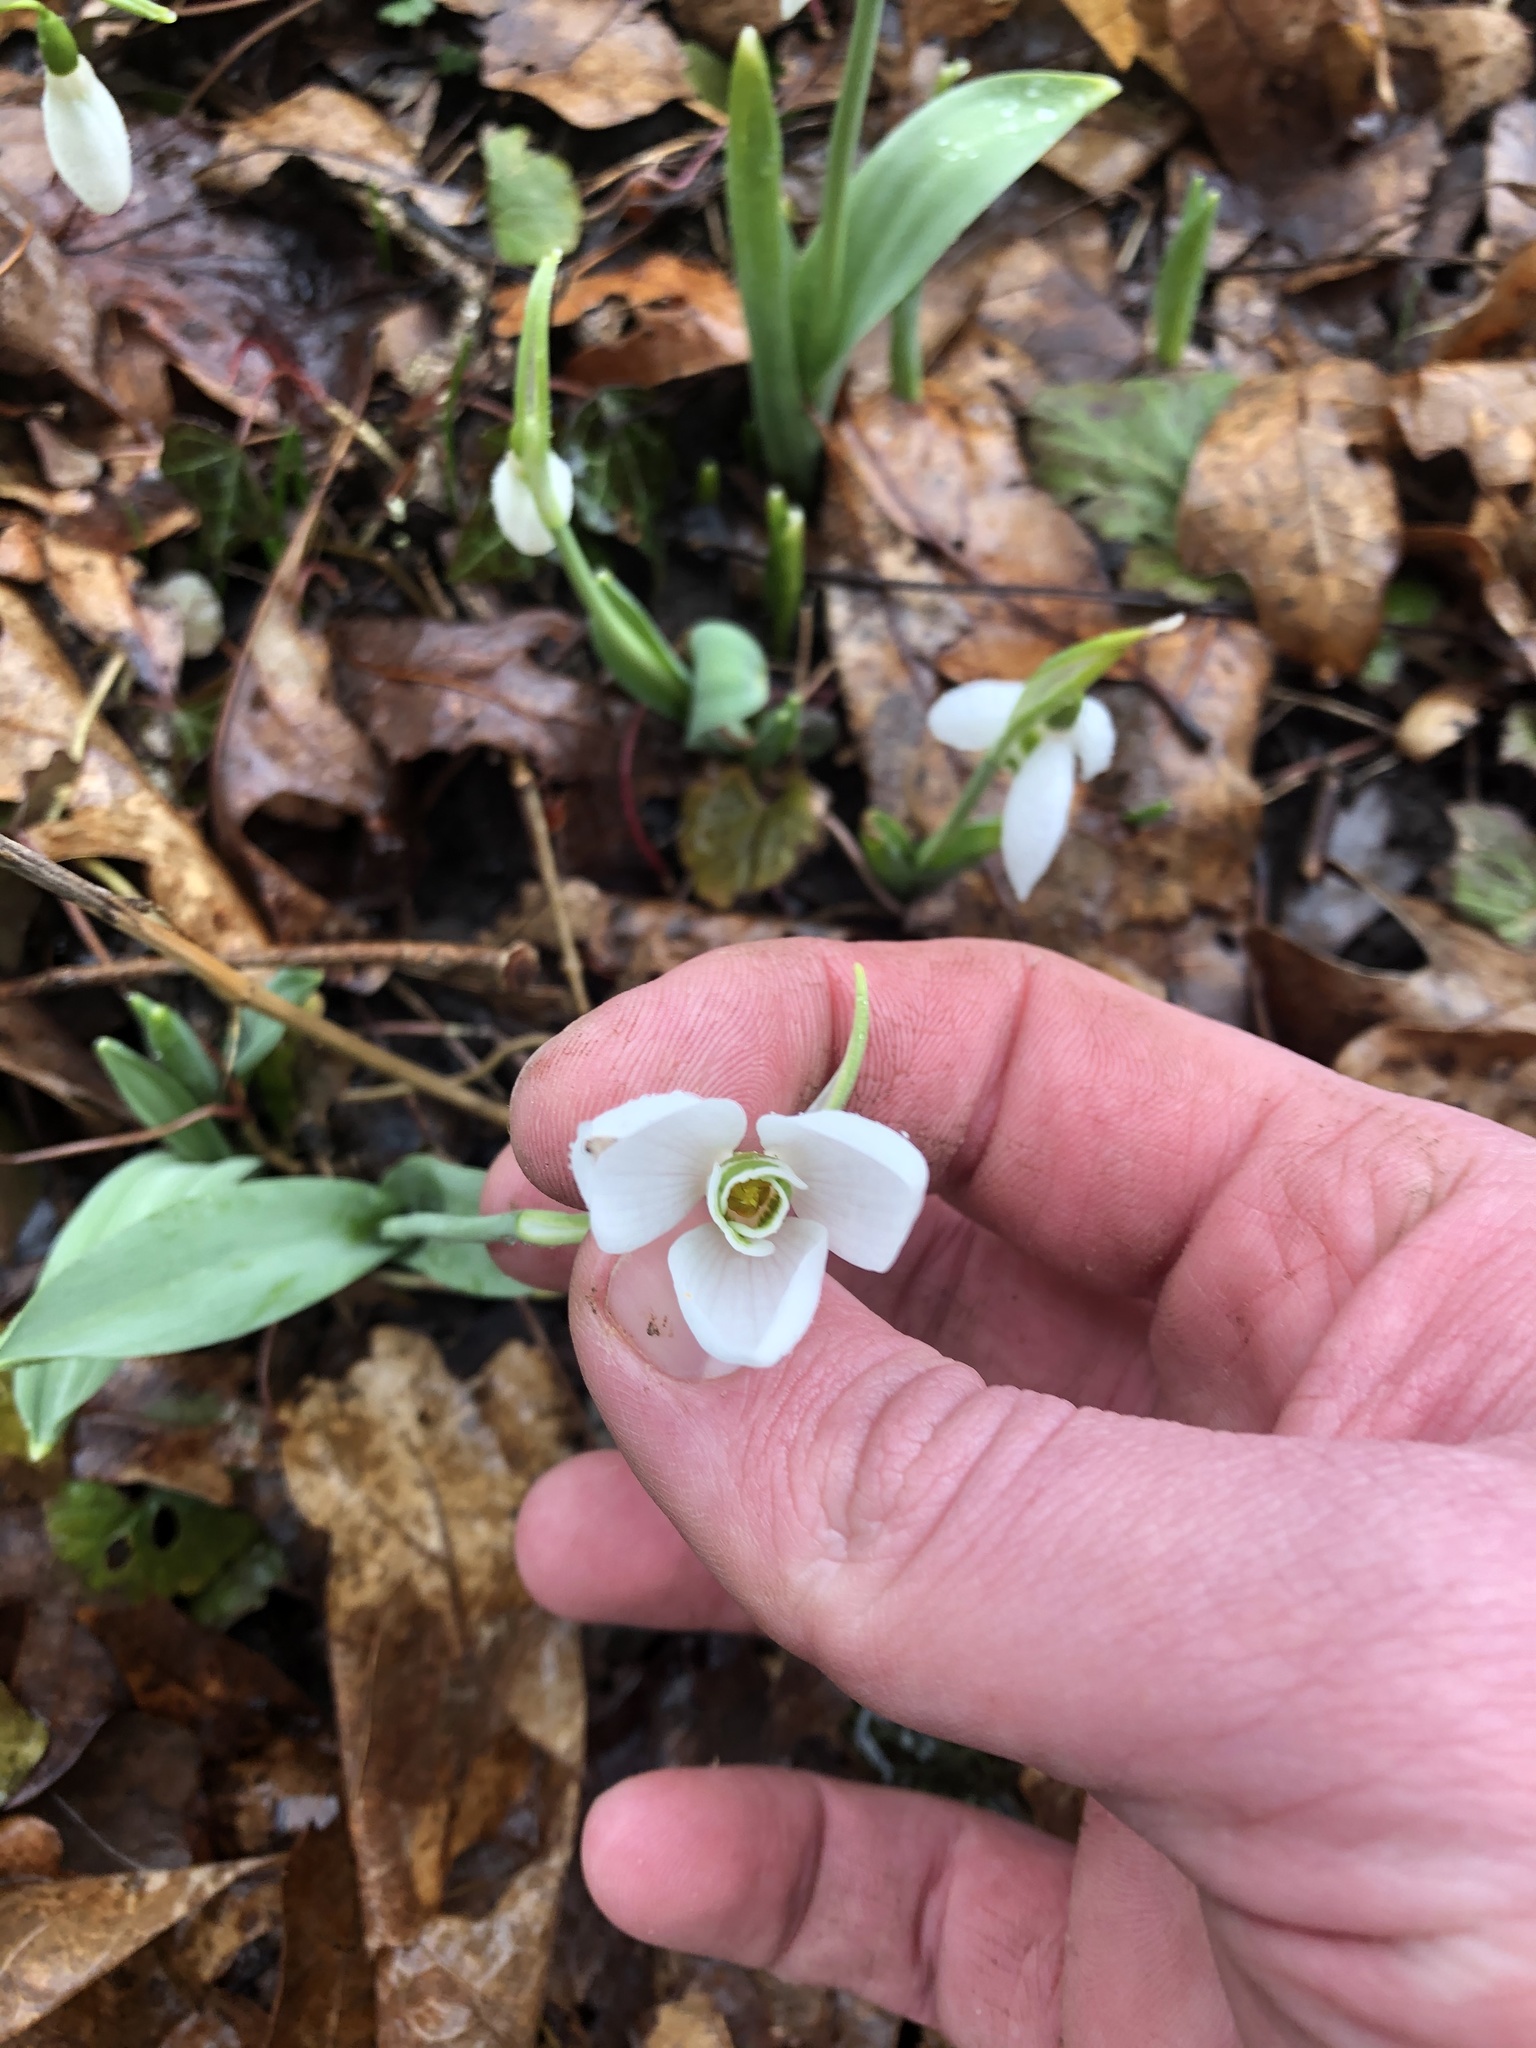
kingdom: Plantae
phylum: Tracheophyta
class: Liliopsida
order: Asparagales
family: Amaryllidaceae
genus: Galanthus
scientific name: Galanthus elwesii
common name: Greater snowdrop
